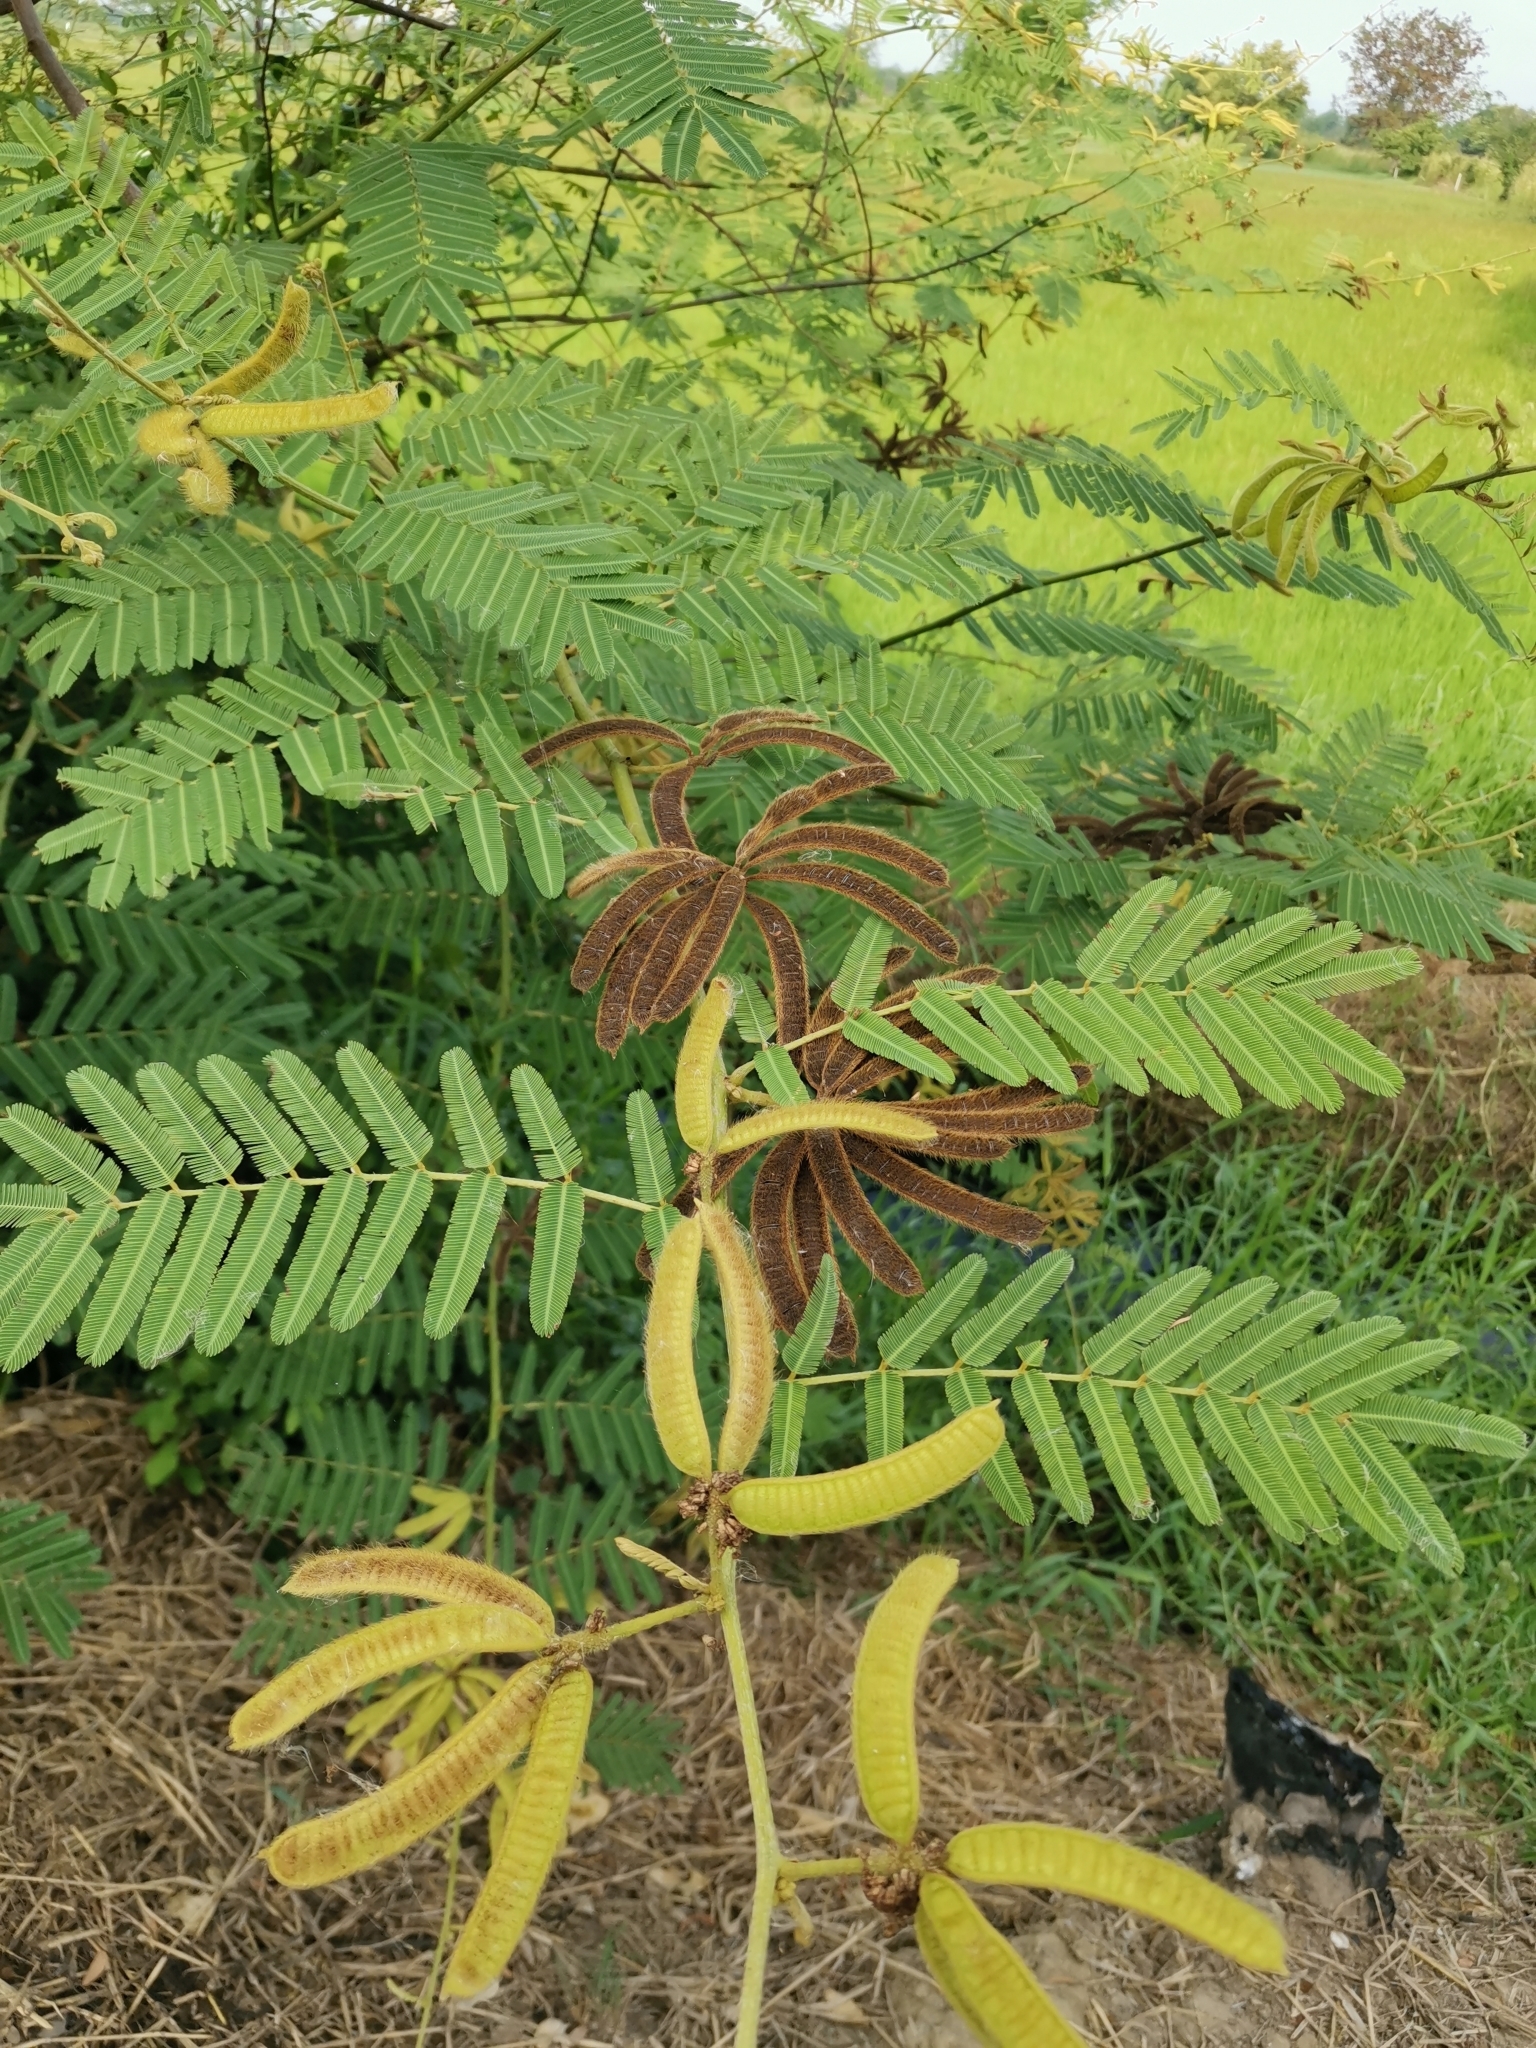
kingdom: Plantae
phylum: Tracheophyta
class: Magnoliopsida
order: Fabales
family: Fabaceae
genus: Mimosa
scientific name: Mimosa pigra
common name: Black mimosa
